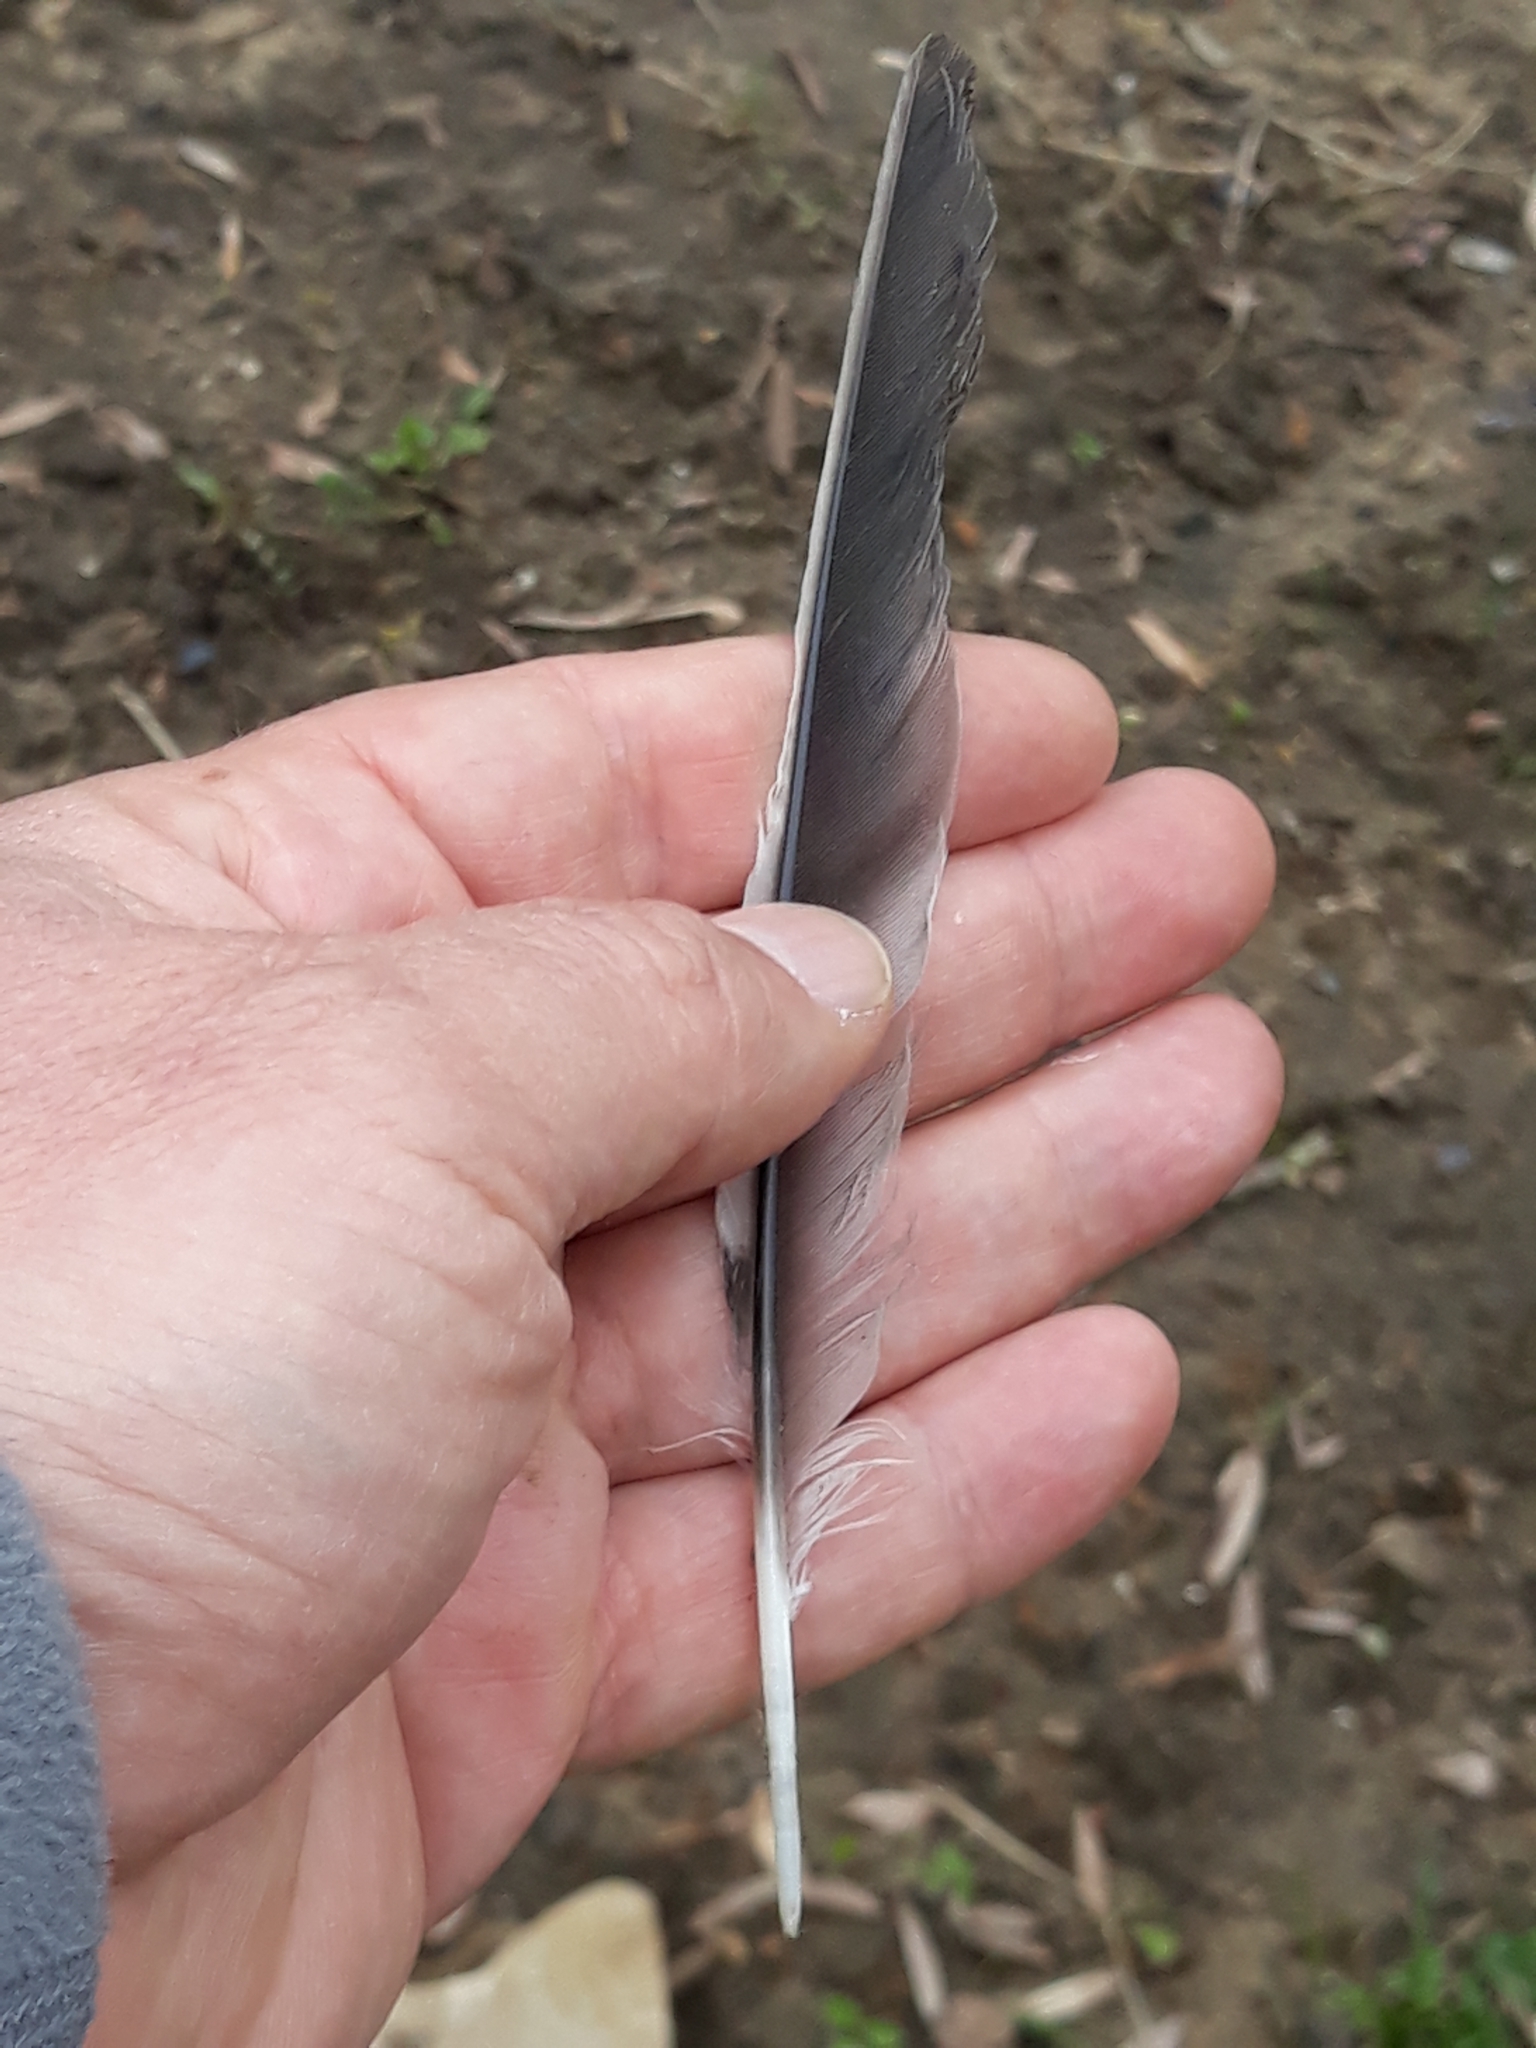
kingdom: Animalia
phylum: Chordata
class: Aves
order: Passeriformes
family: Corvidae
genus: Garrulus
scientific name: Garrulus glandarius
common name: Eurasian jay
